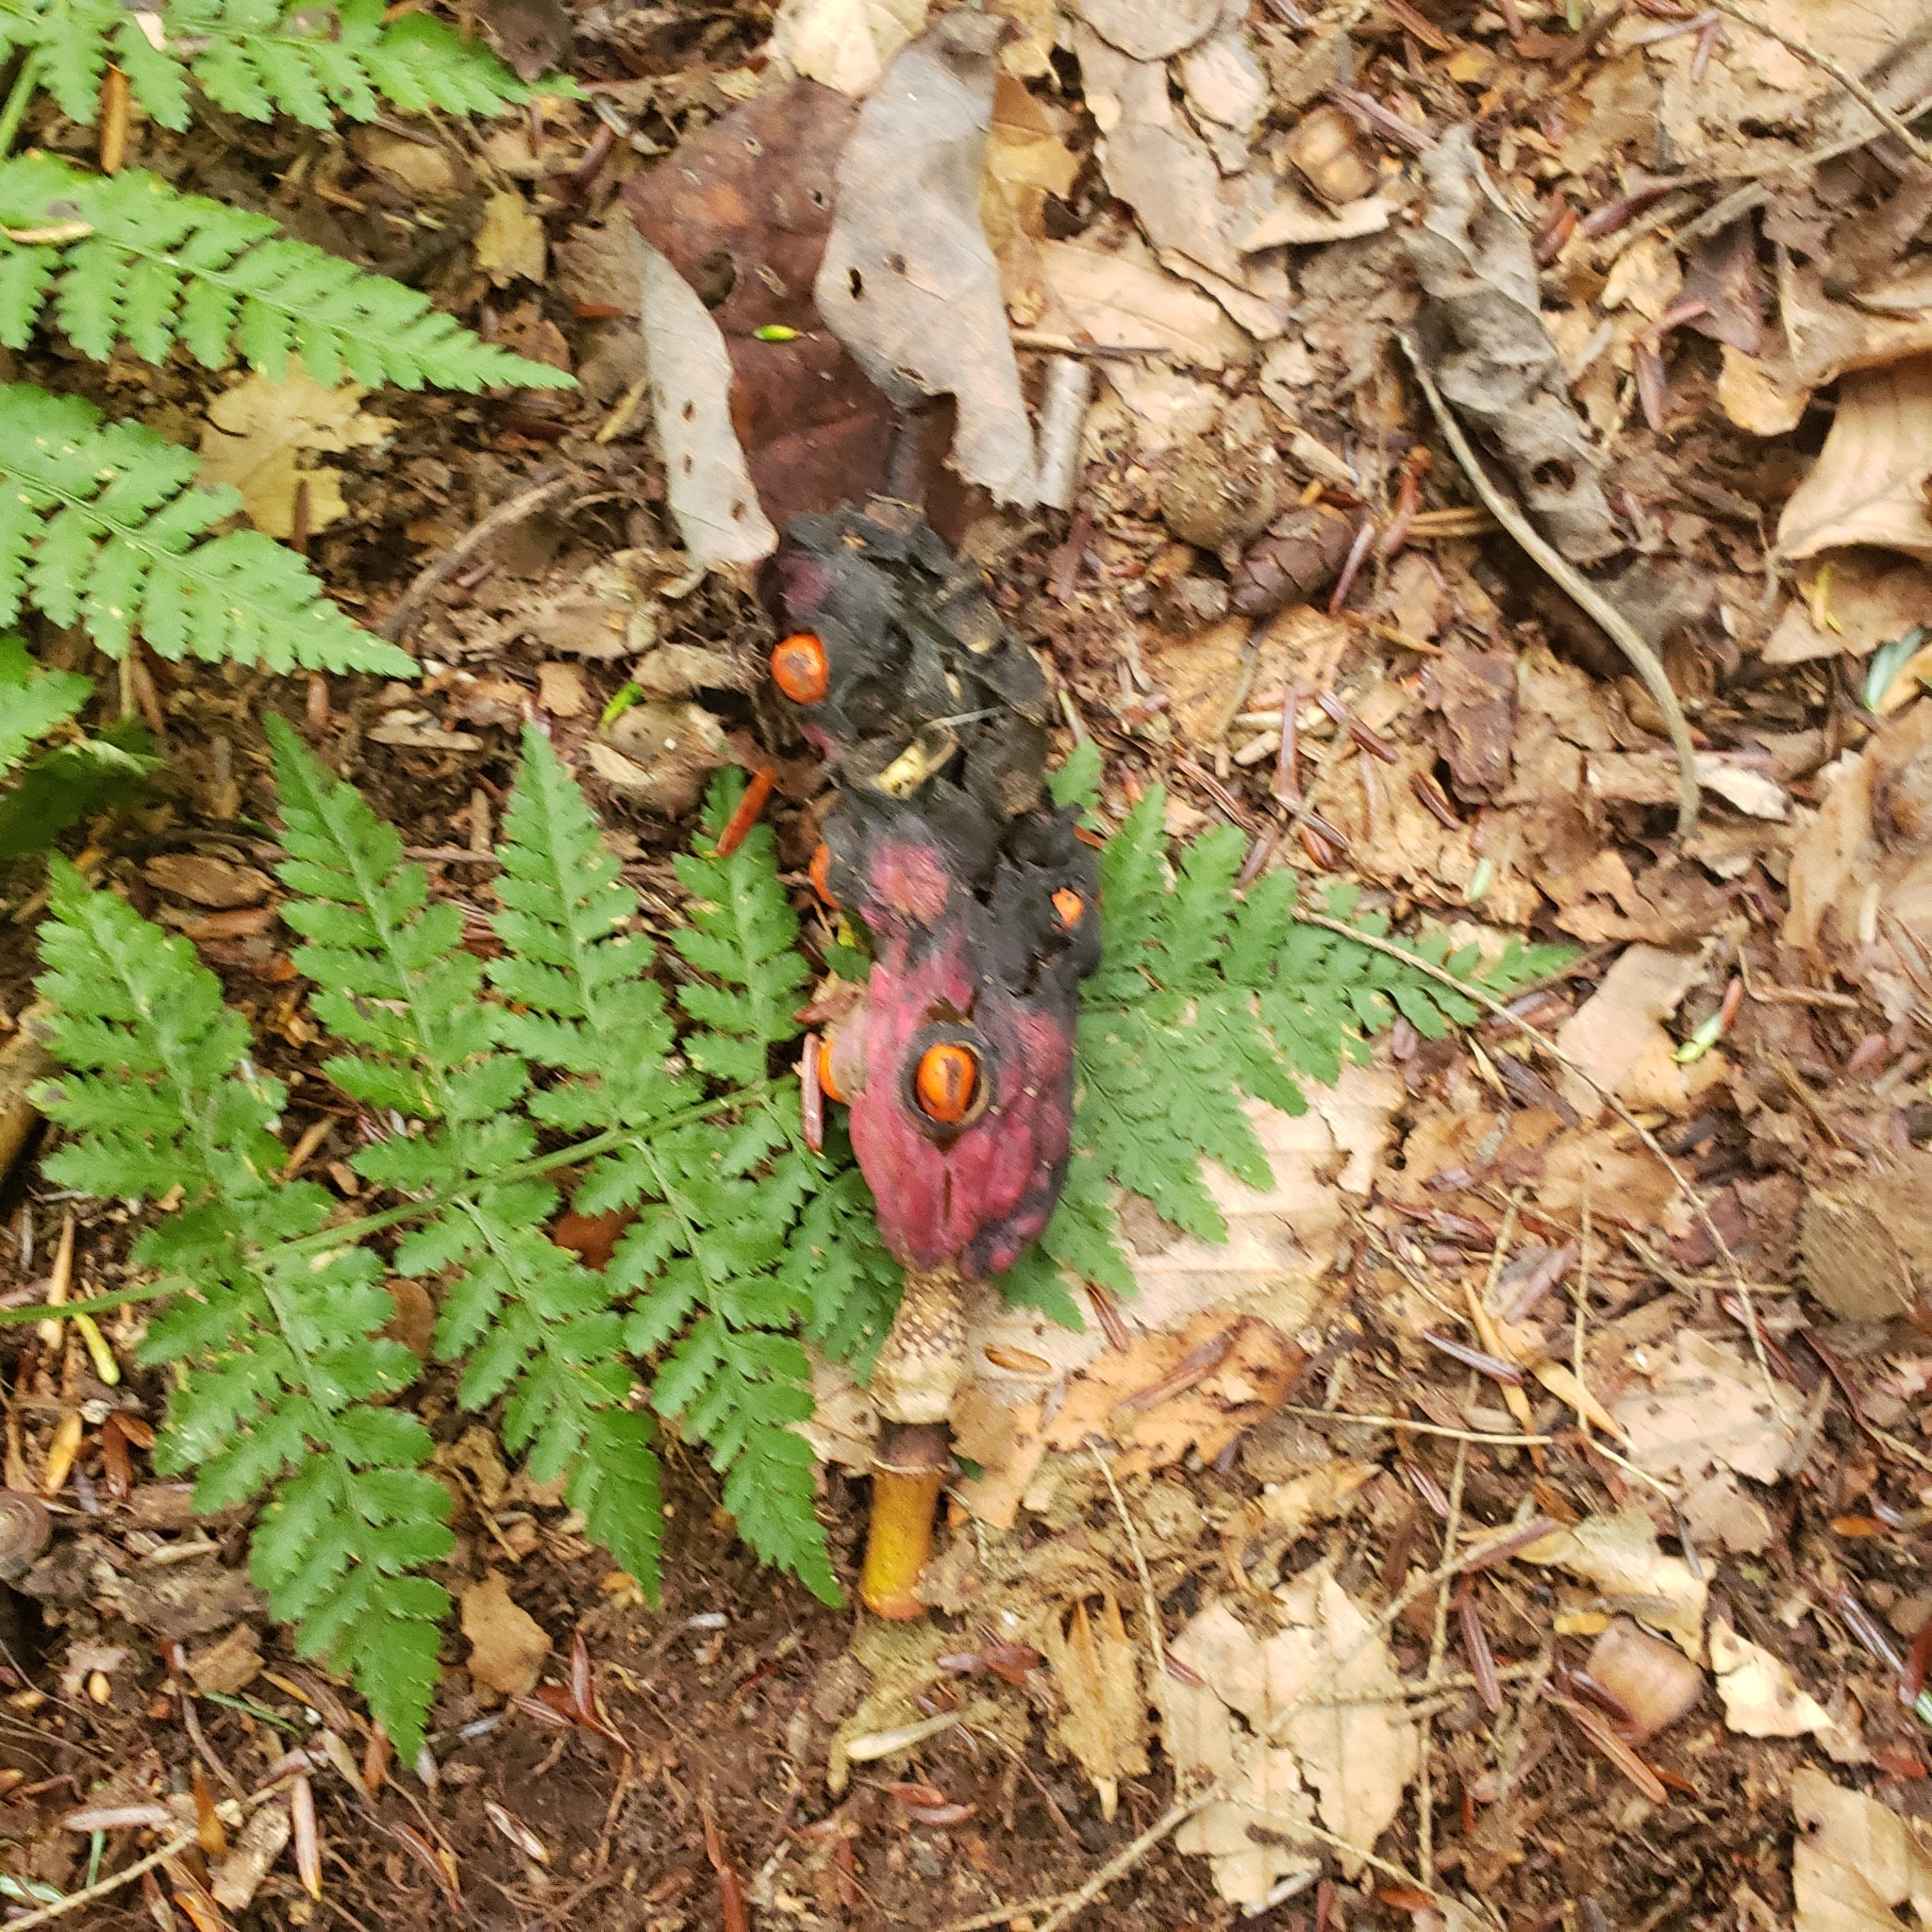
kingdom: Plantae
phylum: Tracheophyta
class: Magnoliopsida
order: Magnoliales
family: Magnoliaceae
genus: Magnolia
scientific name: Magnolia acuminata
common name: Cucumber magnolia
